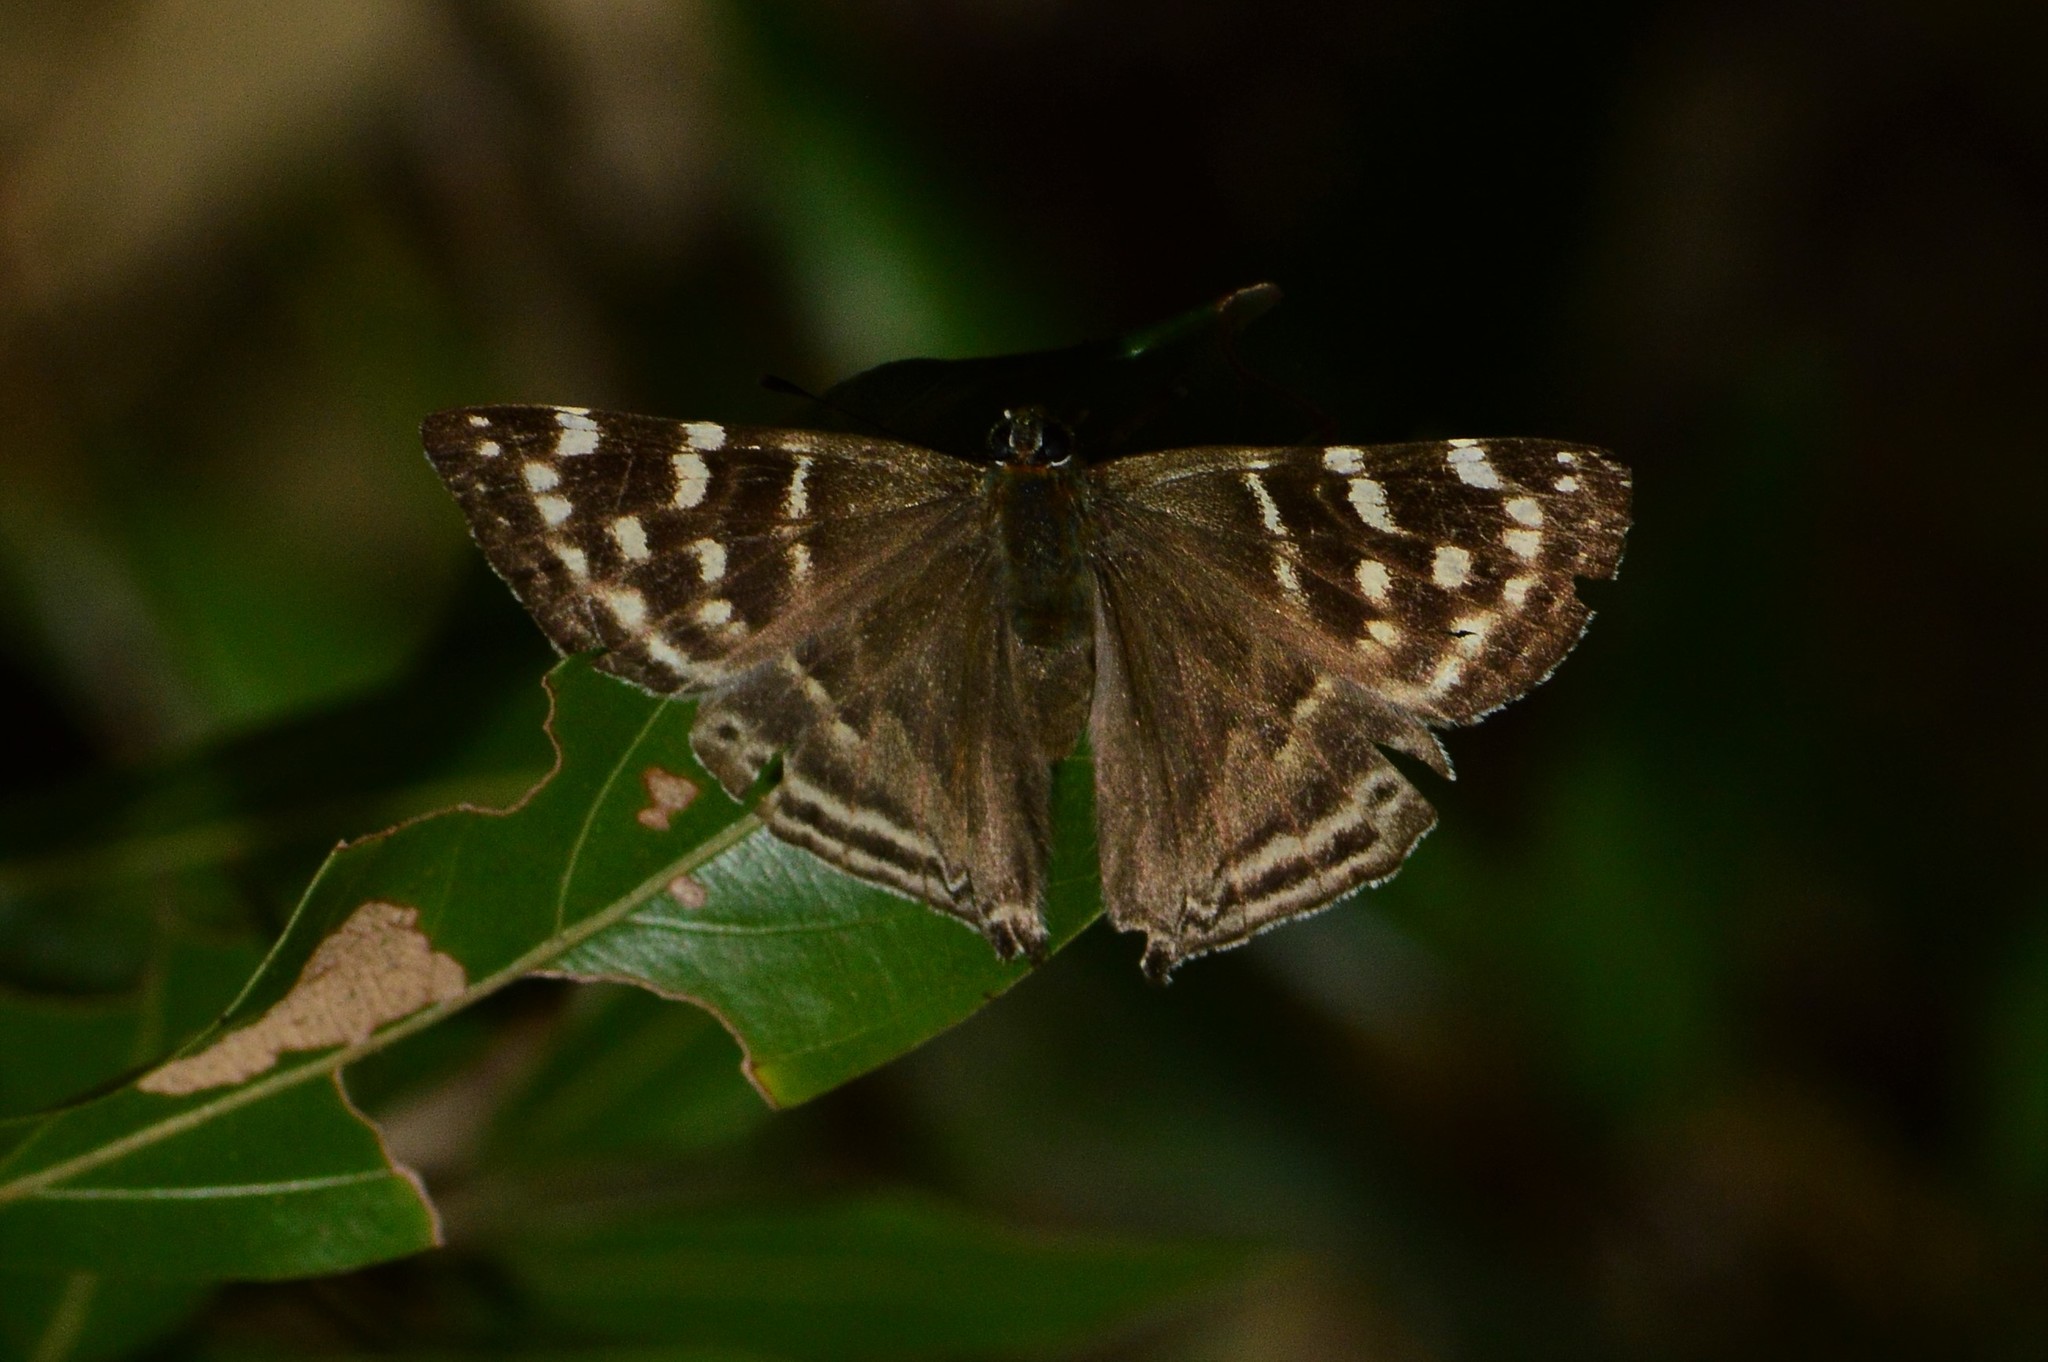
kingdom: Animalia
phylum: Arthropoda
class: Insecta
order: Lepidoptera
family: Lycaenidae
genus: Dodona
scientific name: Dodona dipoea
